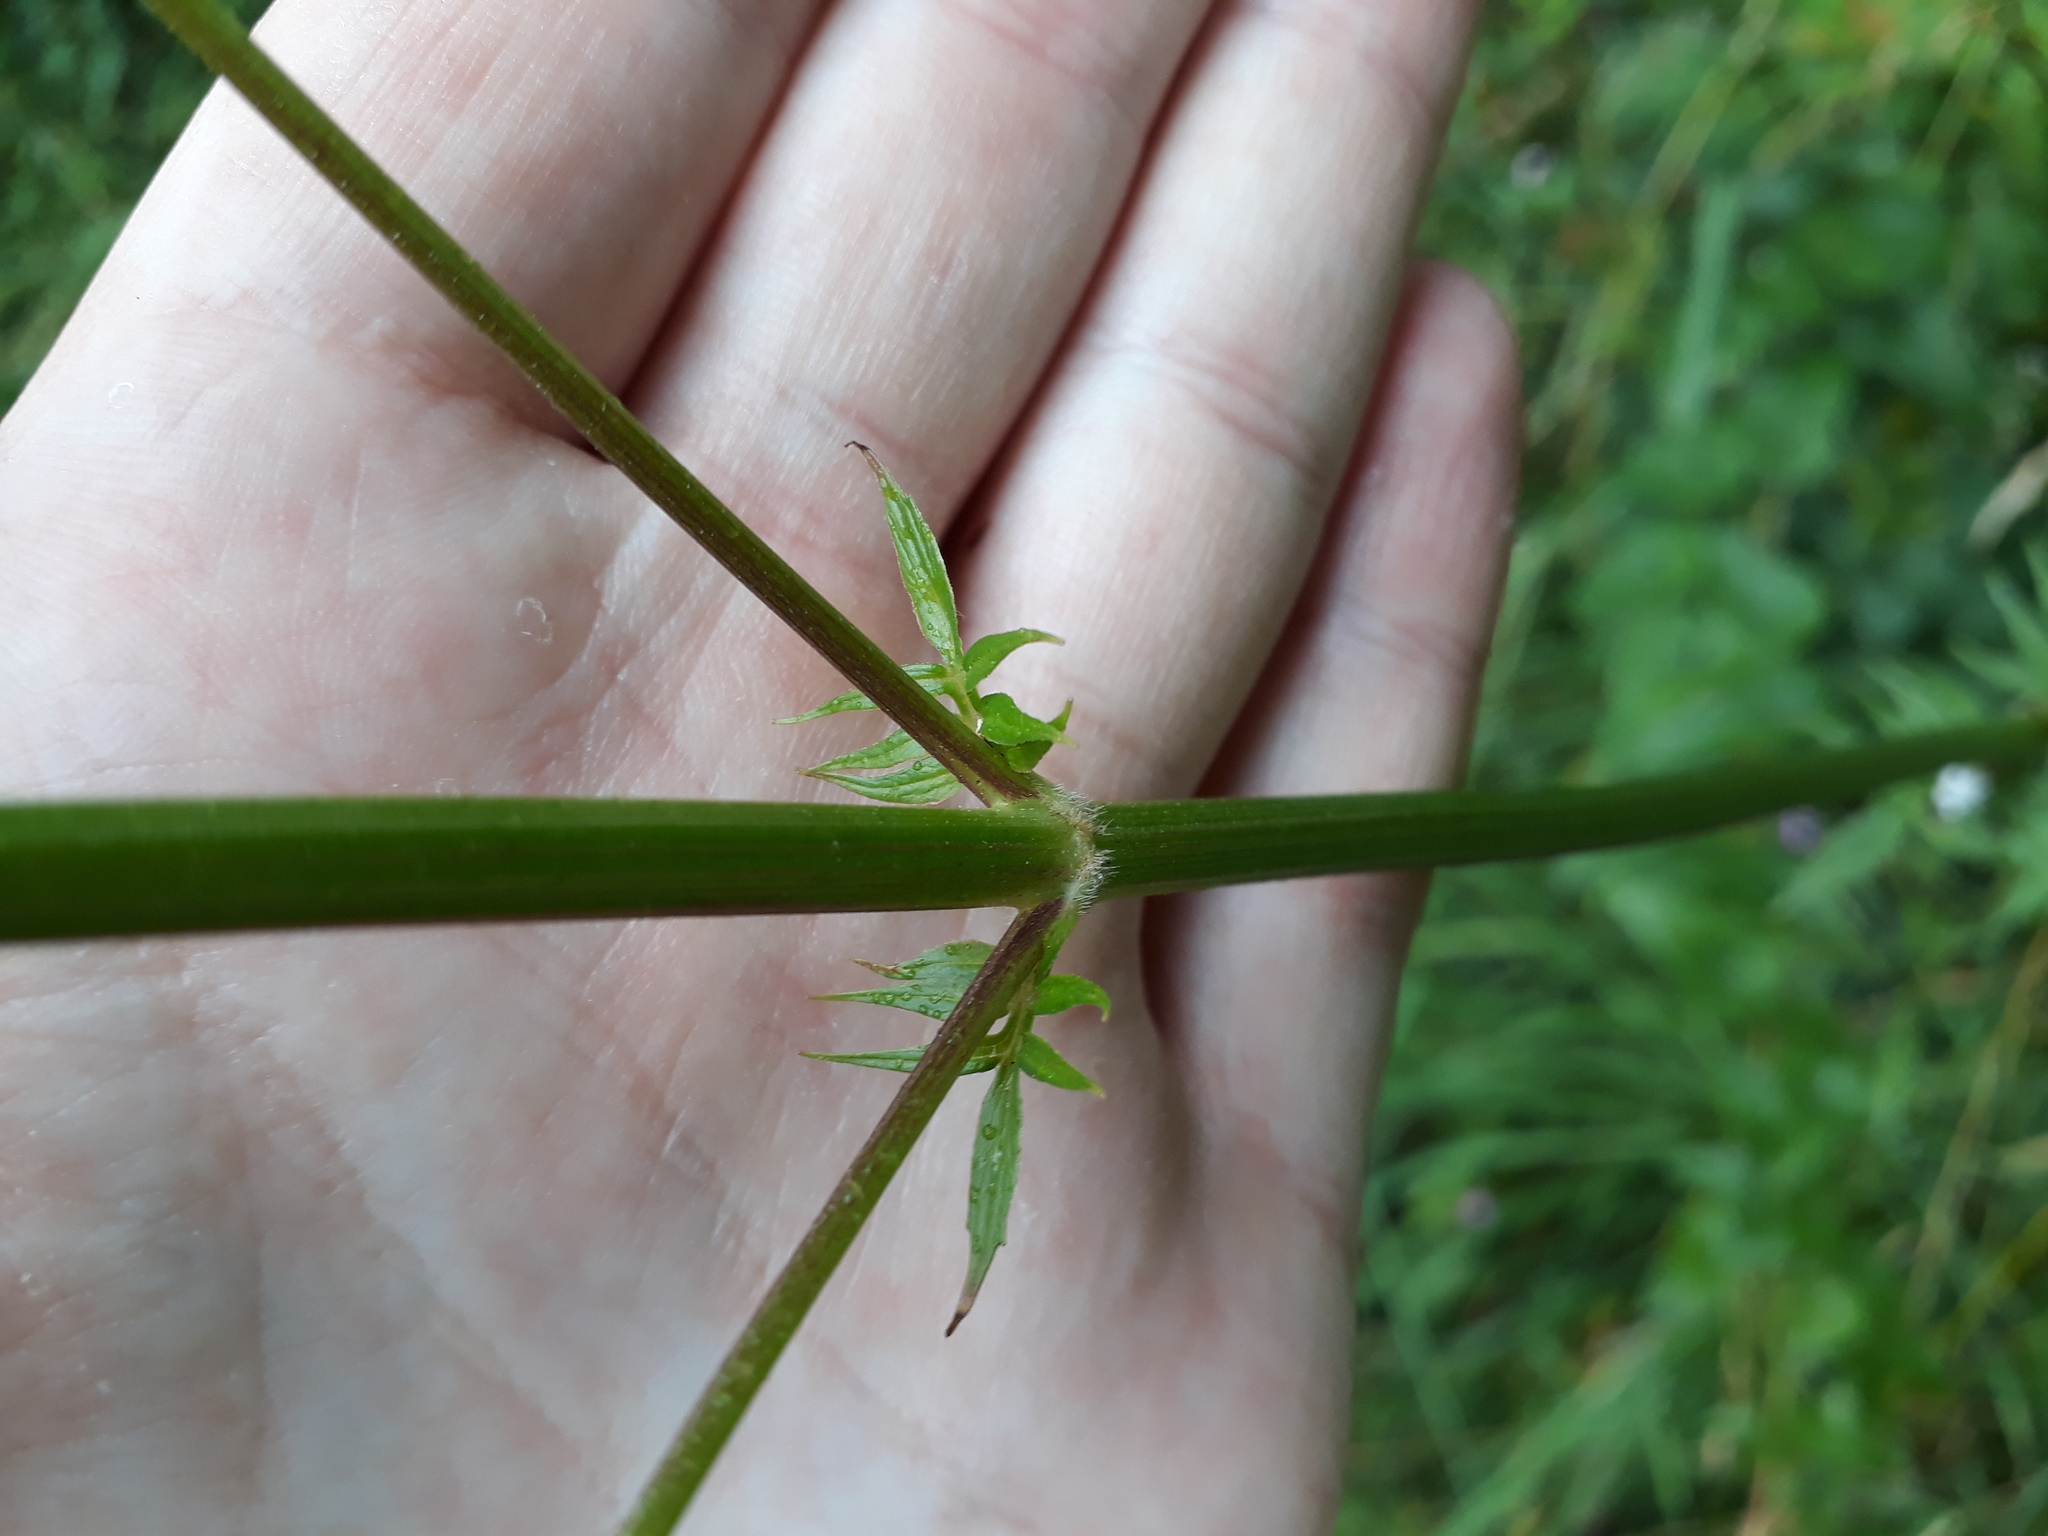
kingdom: Plantae
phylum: Tracheophyta
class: Magnoliopsida
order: Dipsacales
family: Caprifoliaceae
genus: Valeriana
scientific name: Valeriana officinalis
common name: Common valerian
